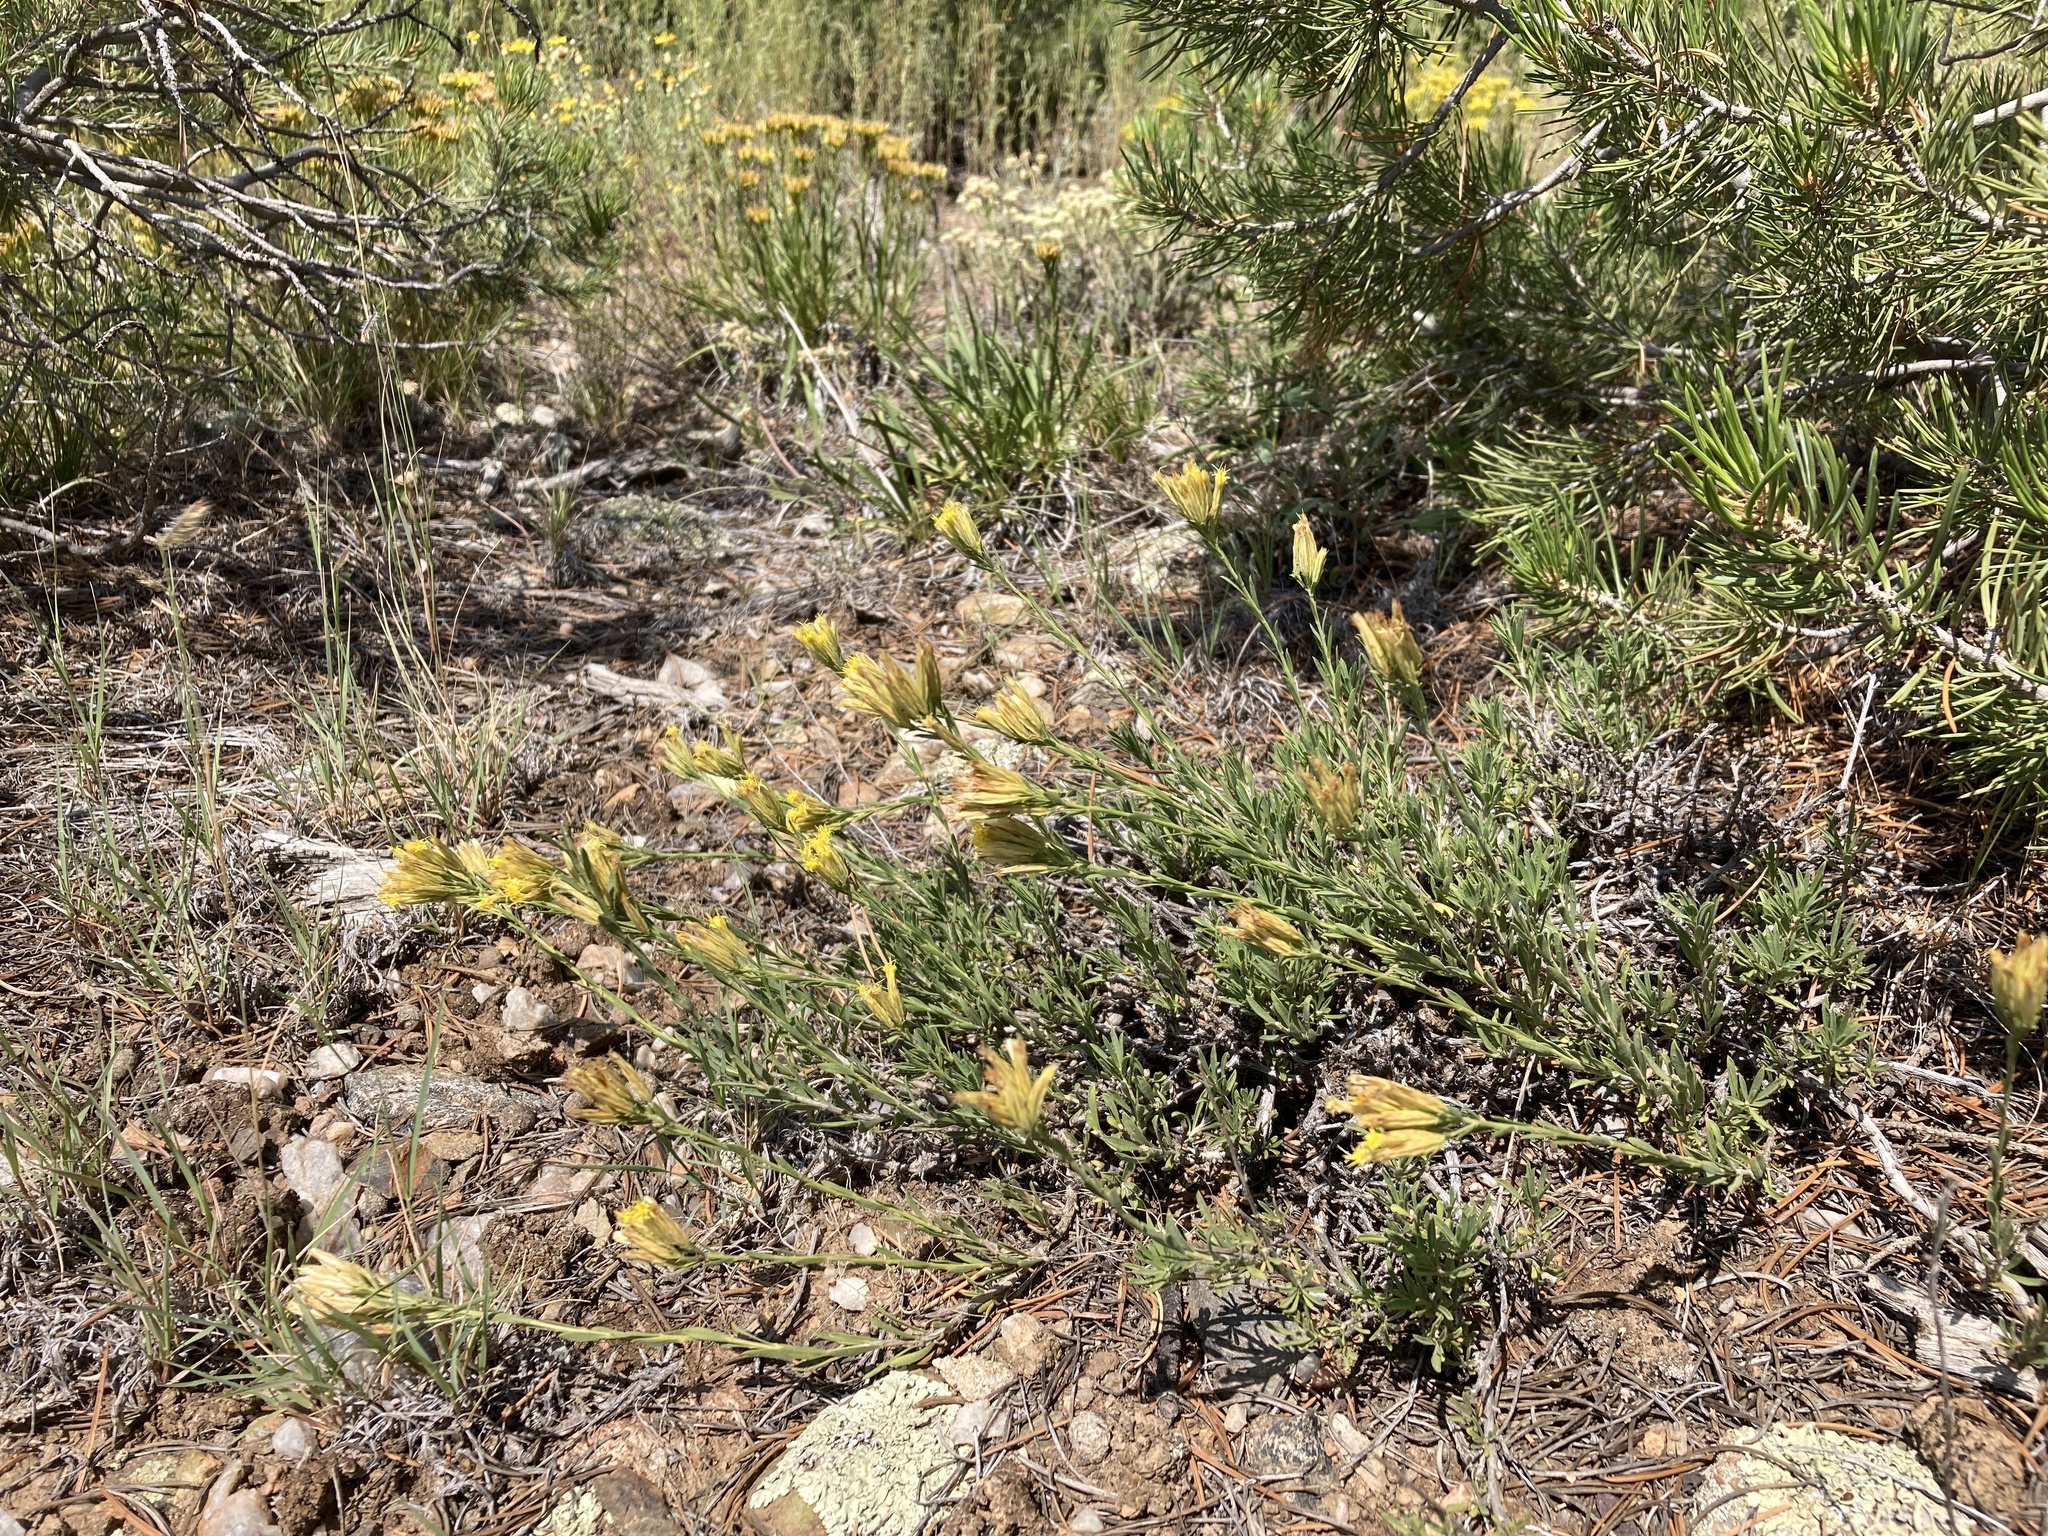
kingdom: Plantae
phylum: Tracheophyta
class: Magnoliopsida
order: Asterales
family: Asteraceae
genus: Chrysothamnus
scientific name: Chrysothamnus depressus
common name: Long-flower rabbitbrush
